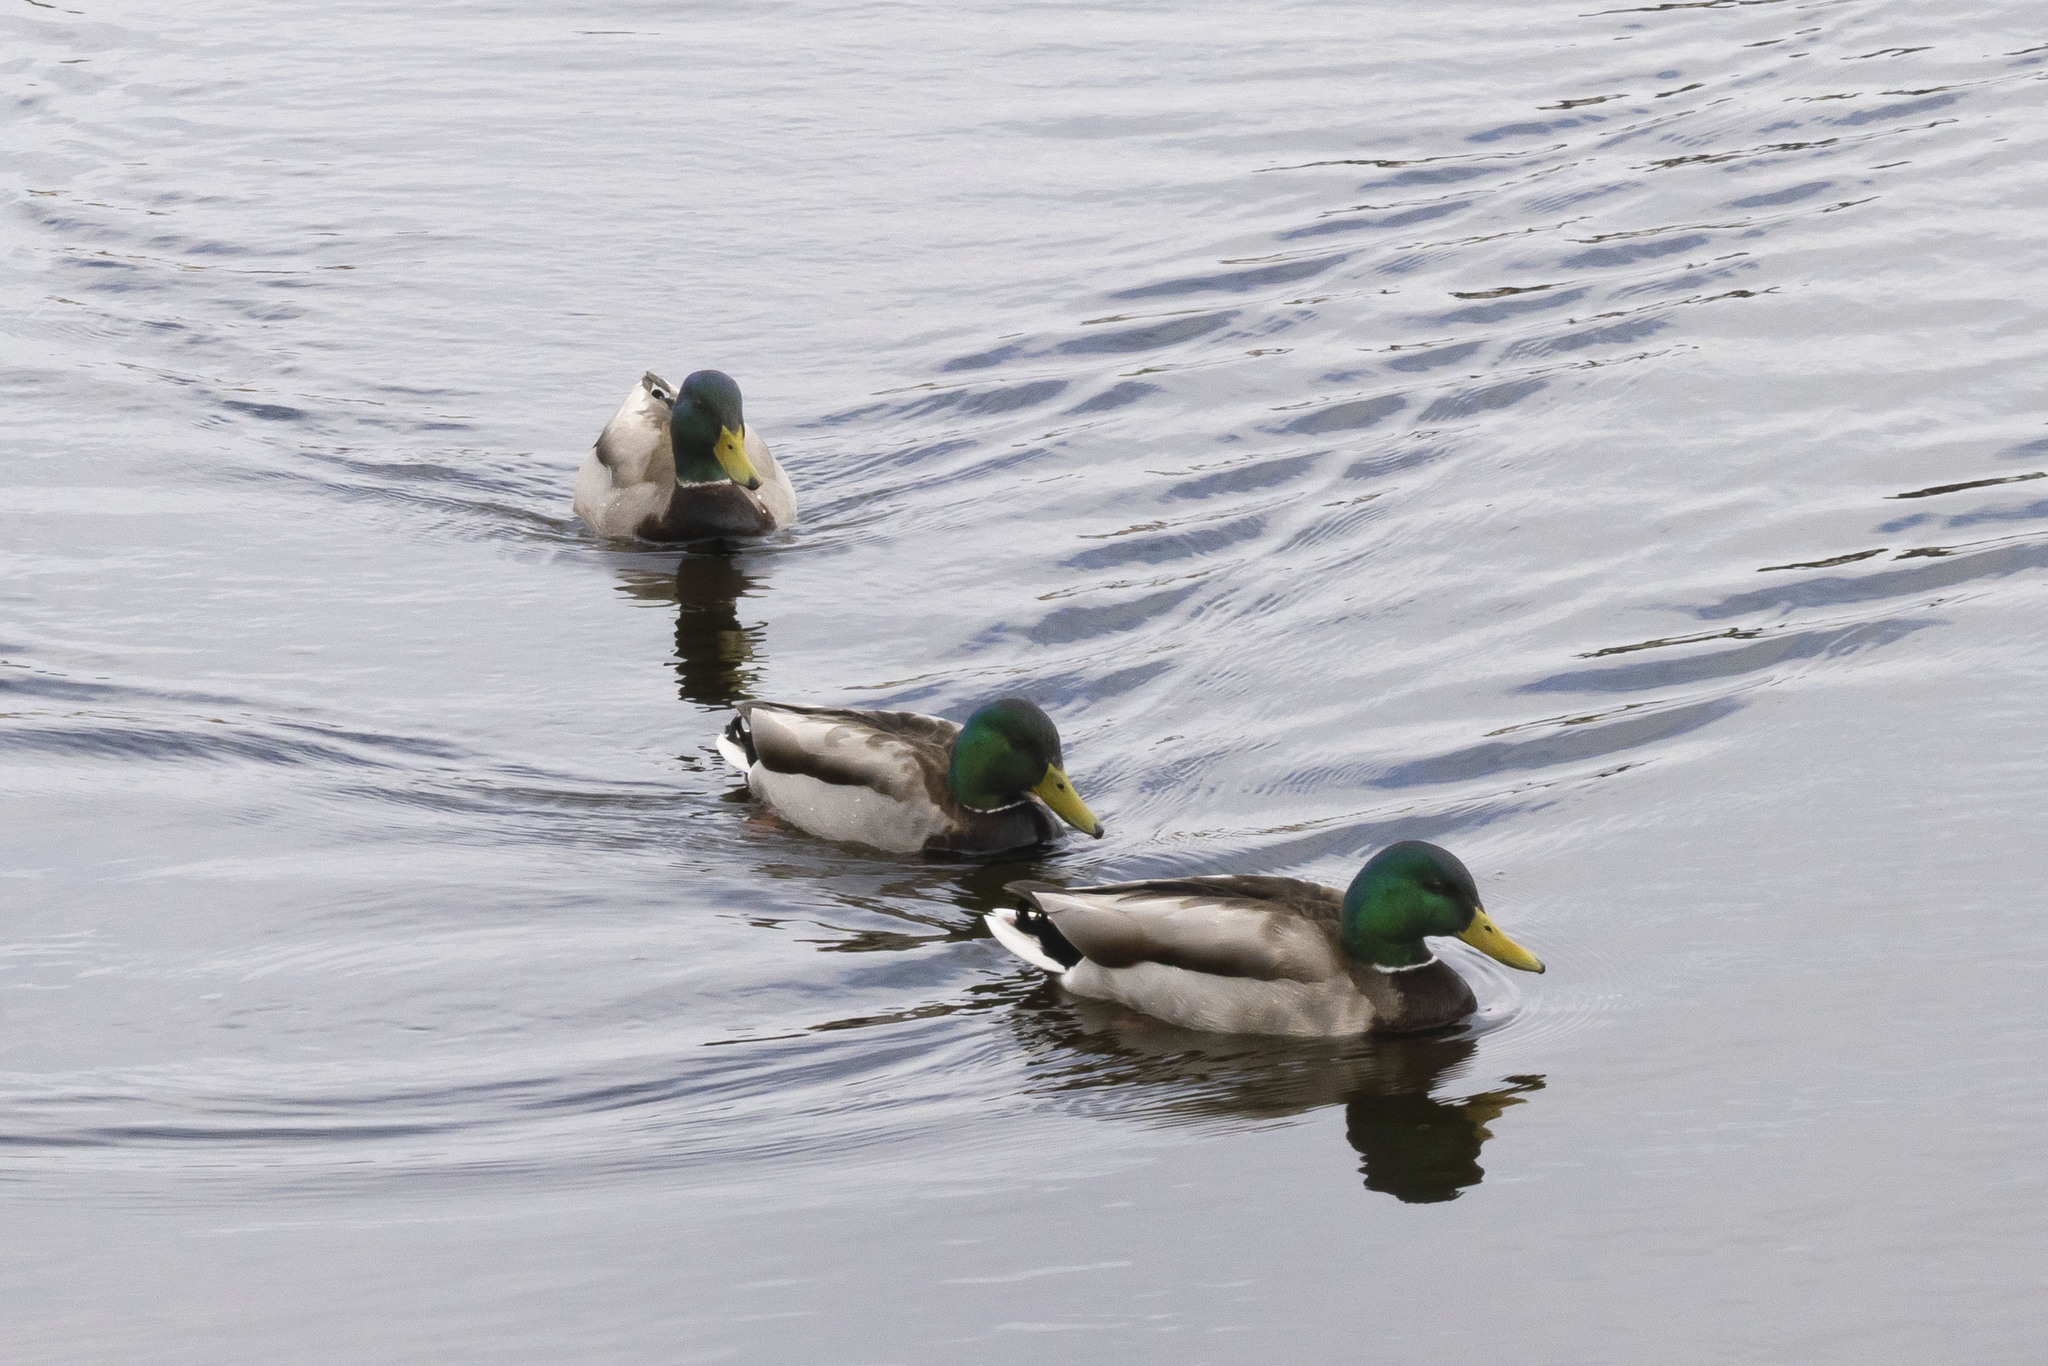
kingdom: Animalia
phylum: Chordata
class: Aves
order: Anseriformes
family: Anatidae
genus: Anas
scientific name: Anas platyrhynchos
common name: Mallard
